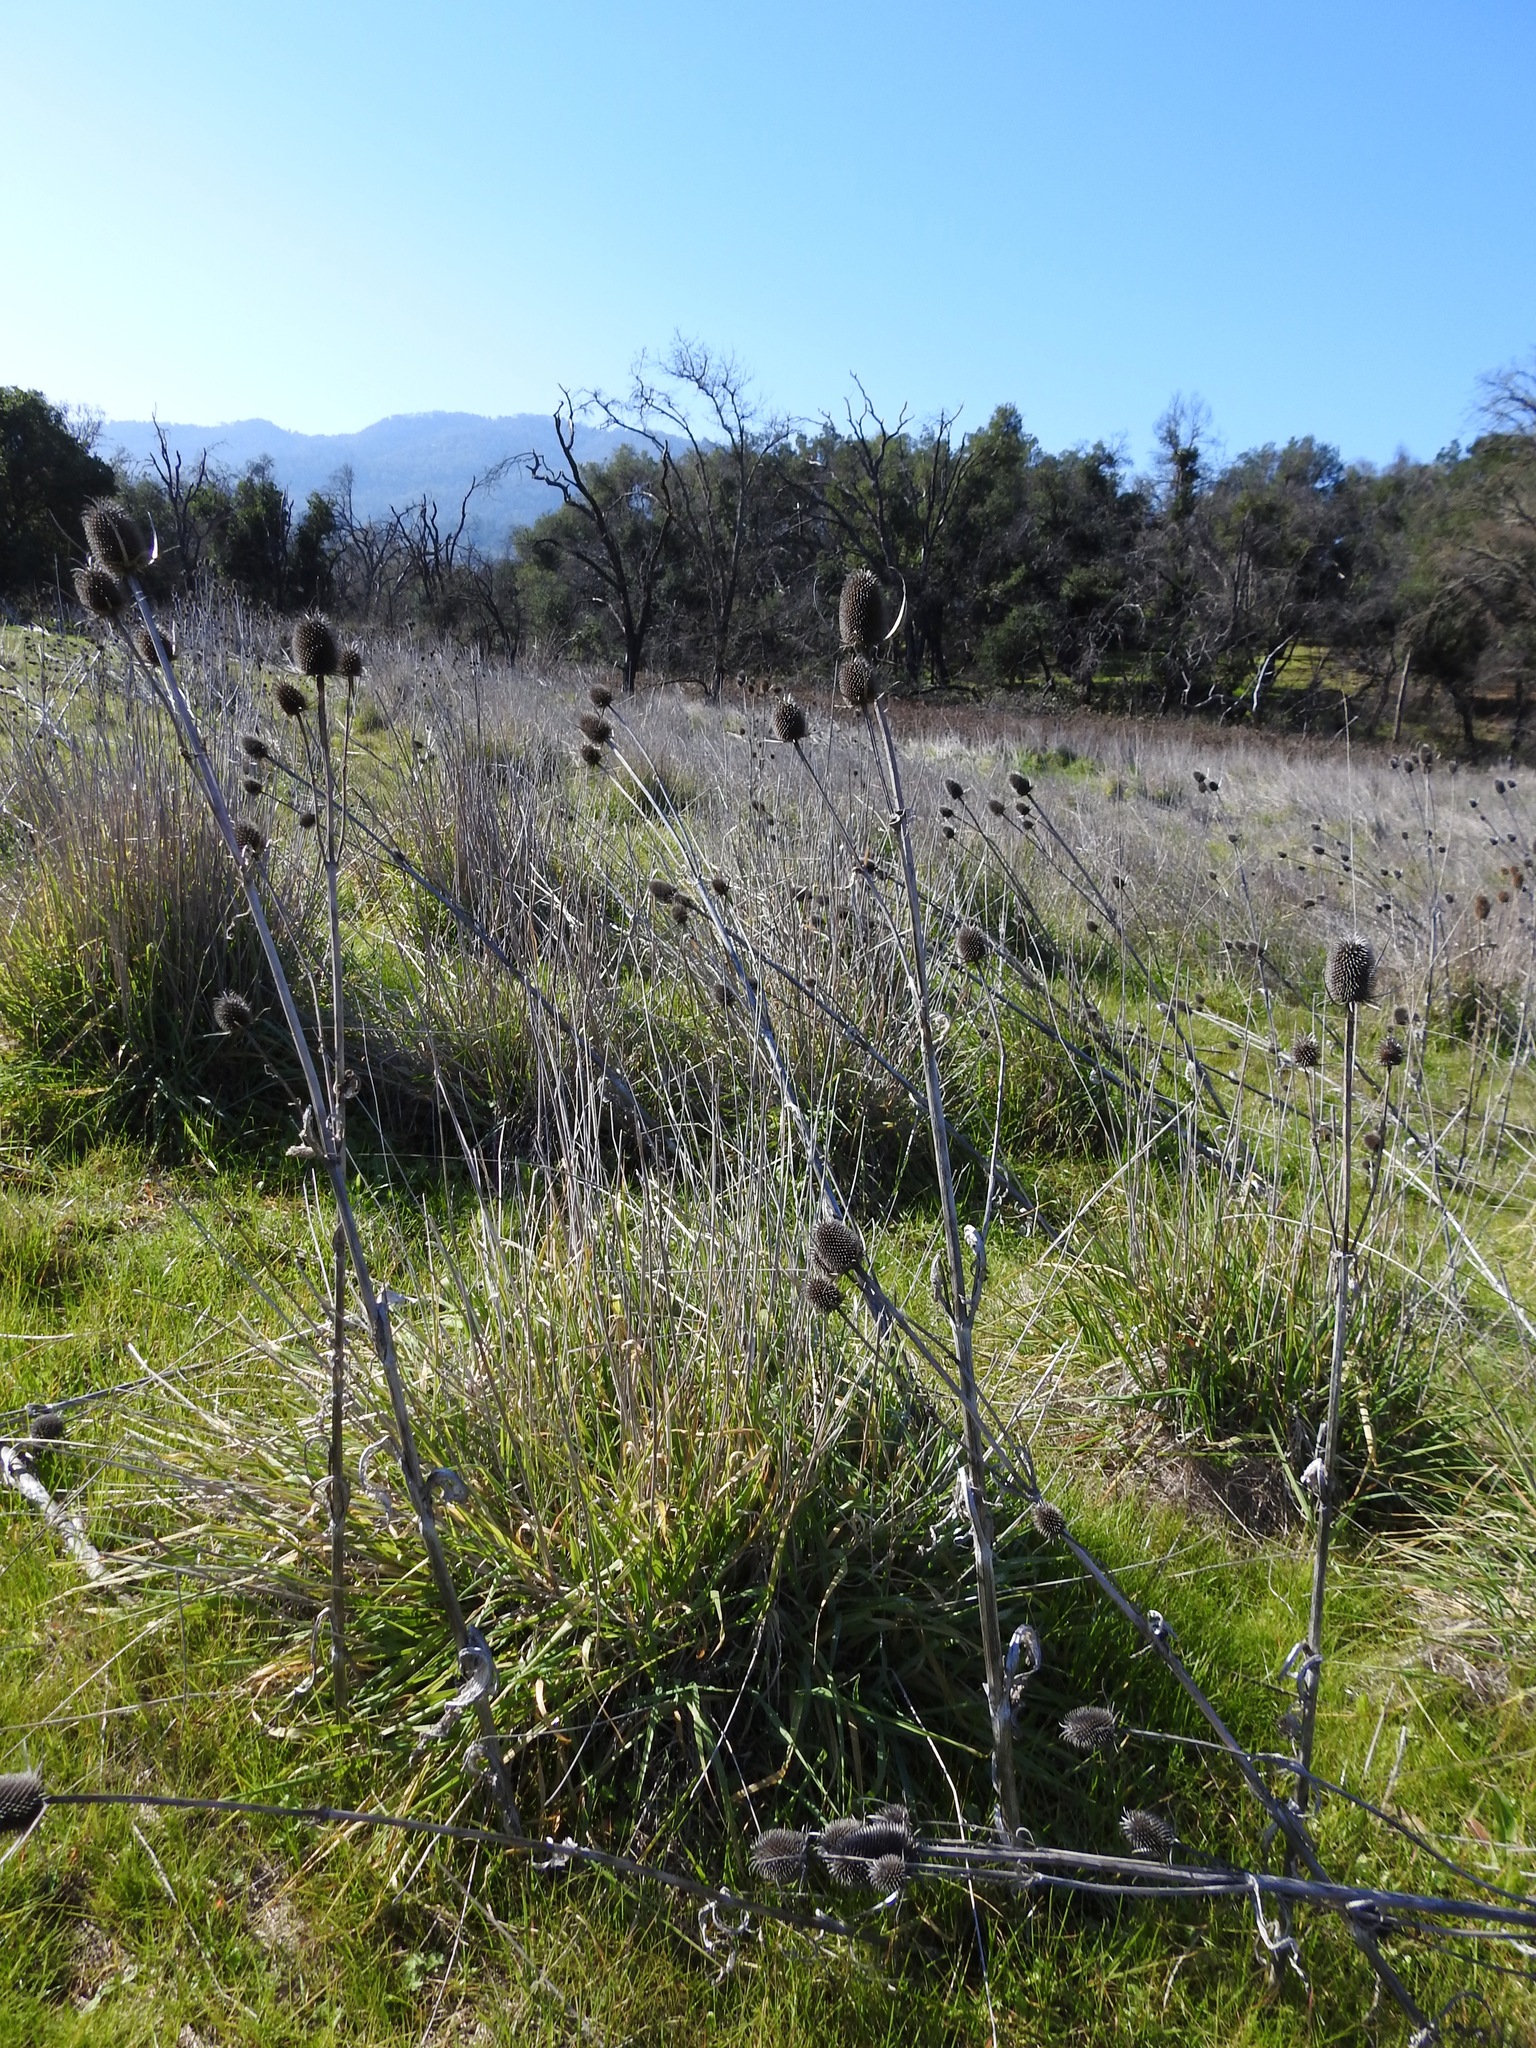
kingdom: Plantae
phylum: Tracheophyta
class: Magnoliopsida
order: Dipsacales
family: Caprifoliaceae
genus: Dipsacus
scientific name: Dipsacus sativus
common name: Fuller's teasel
